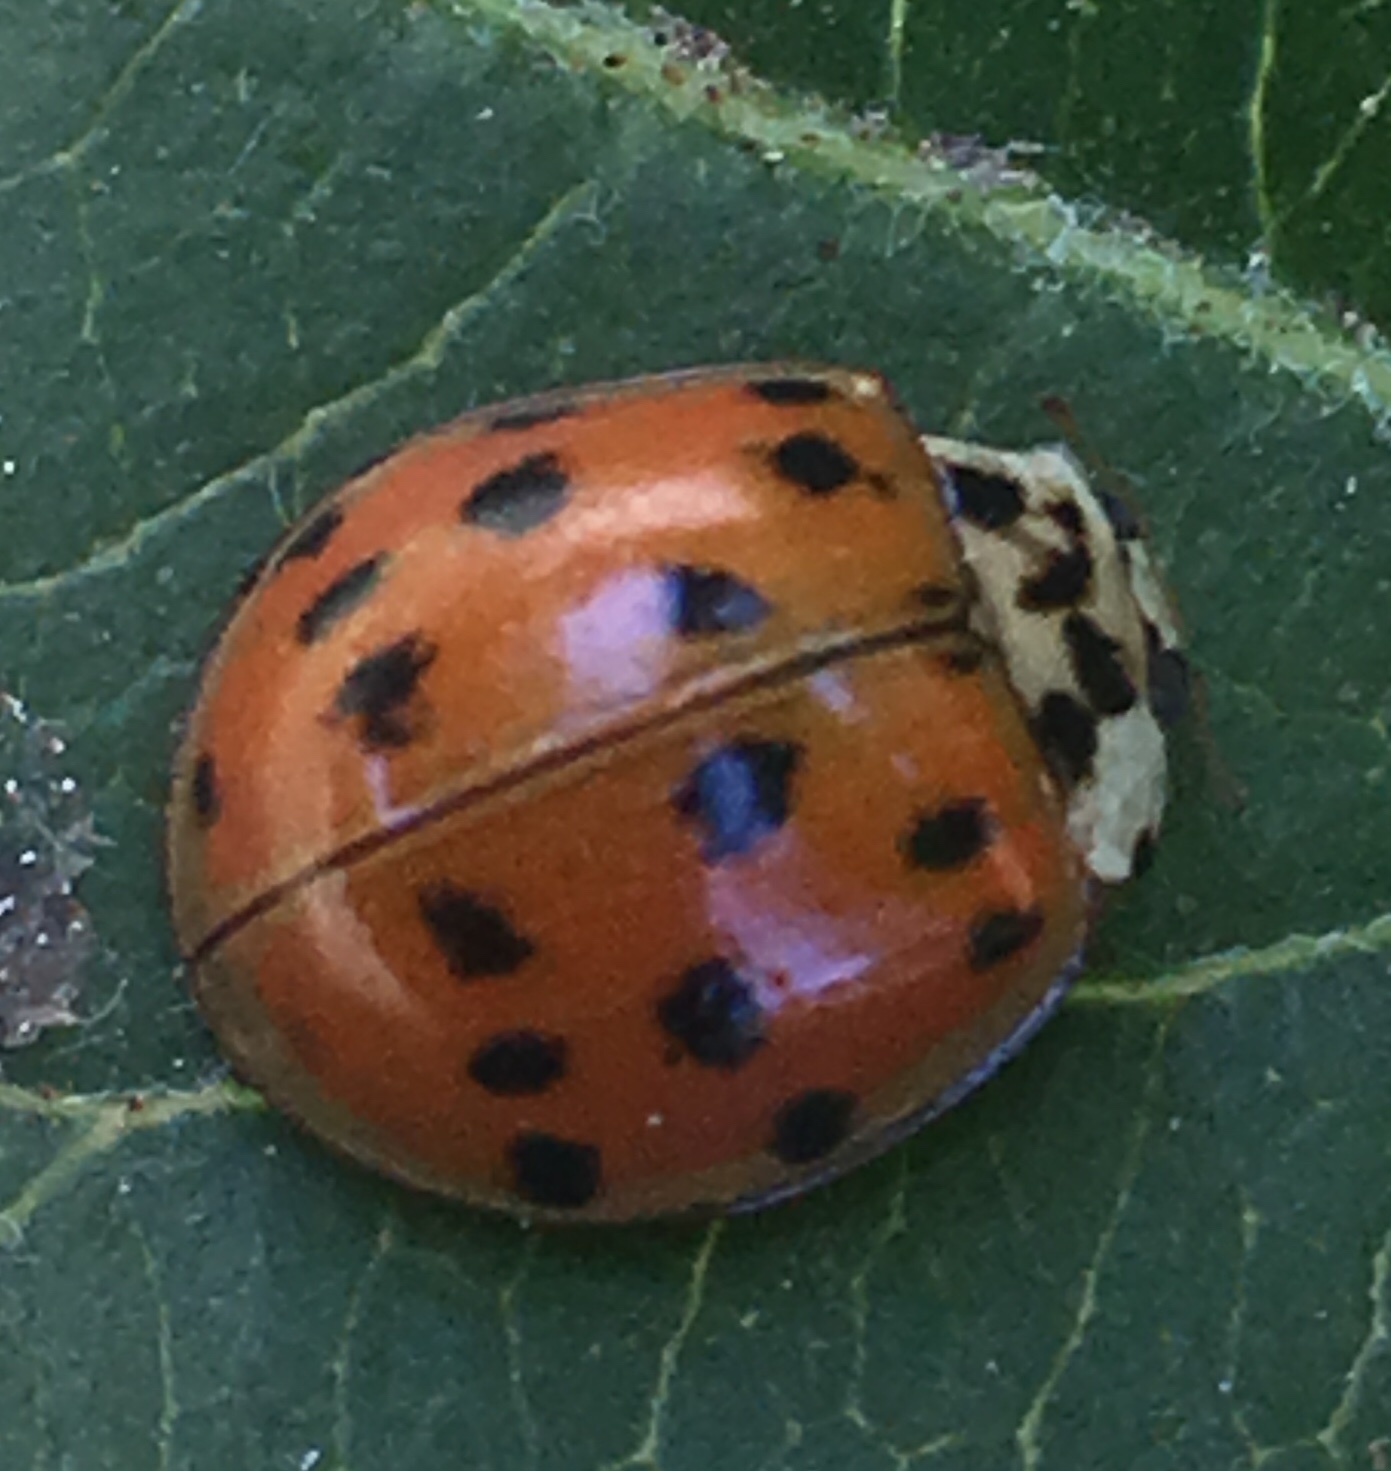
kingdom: Animalia
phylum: Arthropoda
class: Insecta
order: Coleoptera
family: Coccinellidae
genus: Harmonia
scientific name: Harmonia axyridis
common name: Harlequin ladybird
